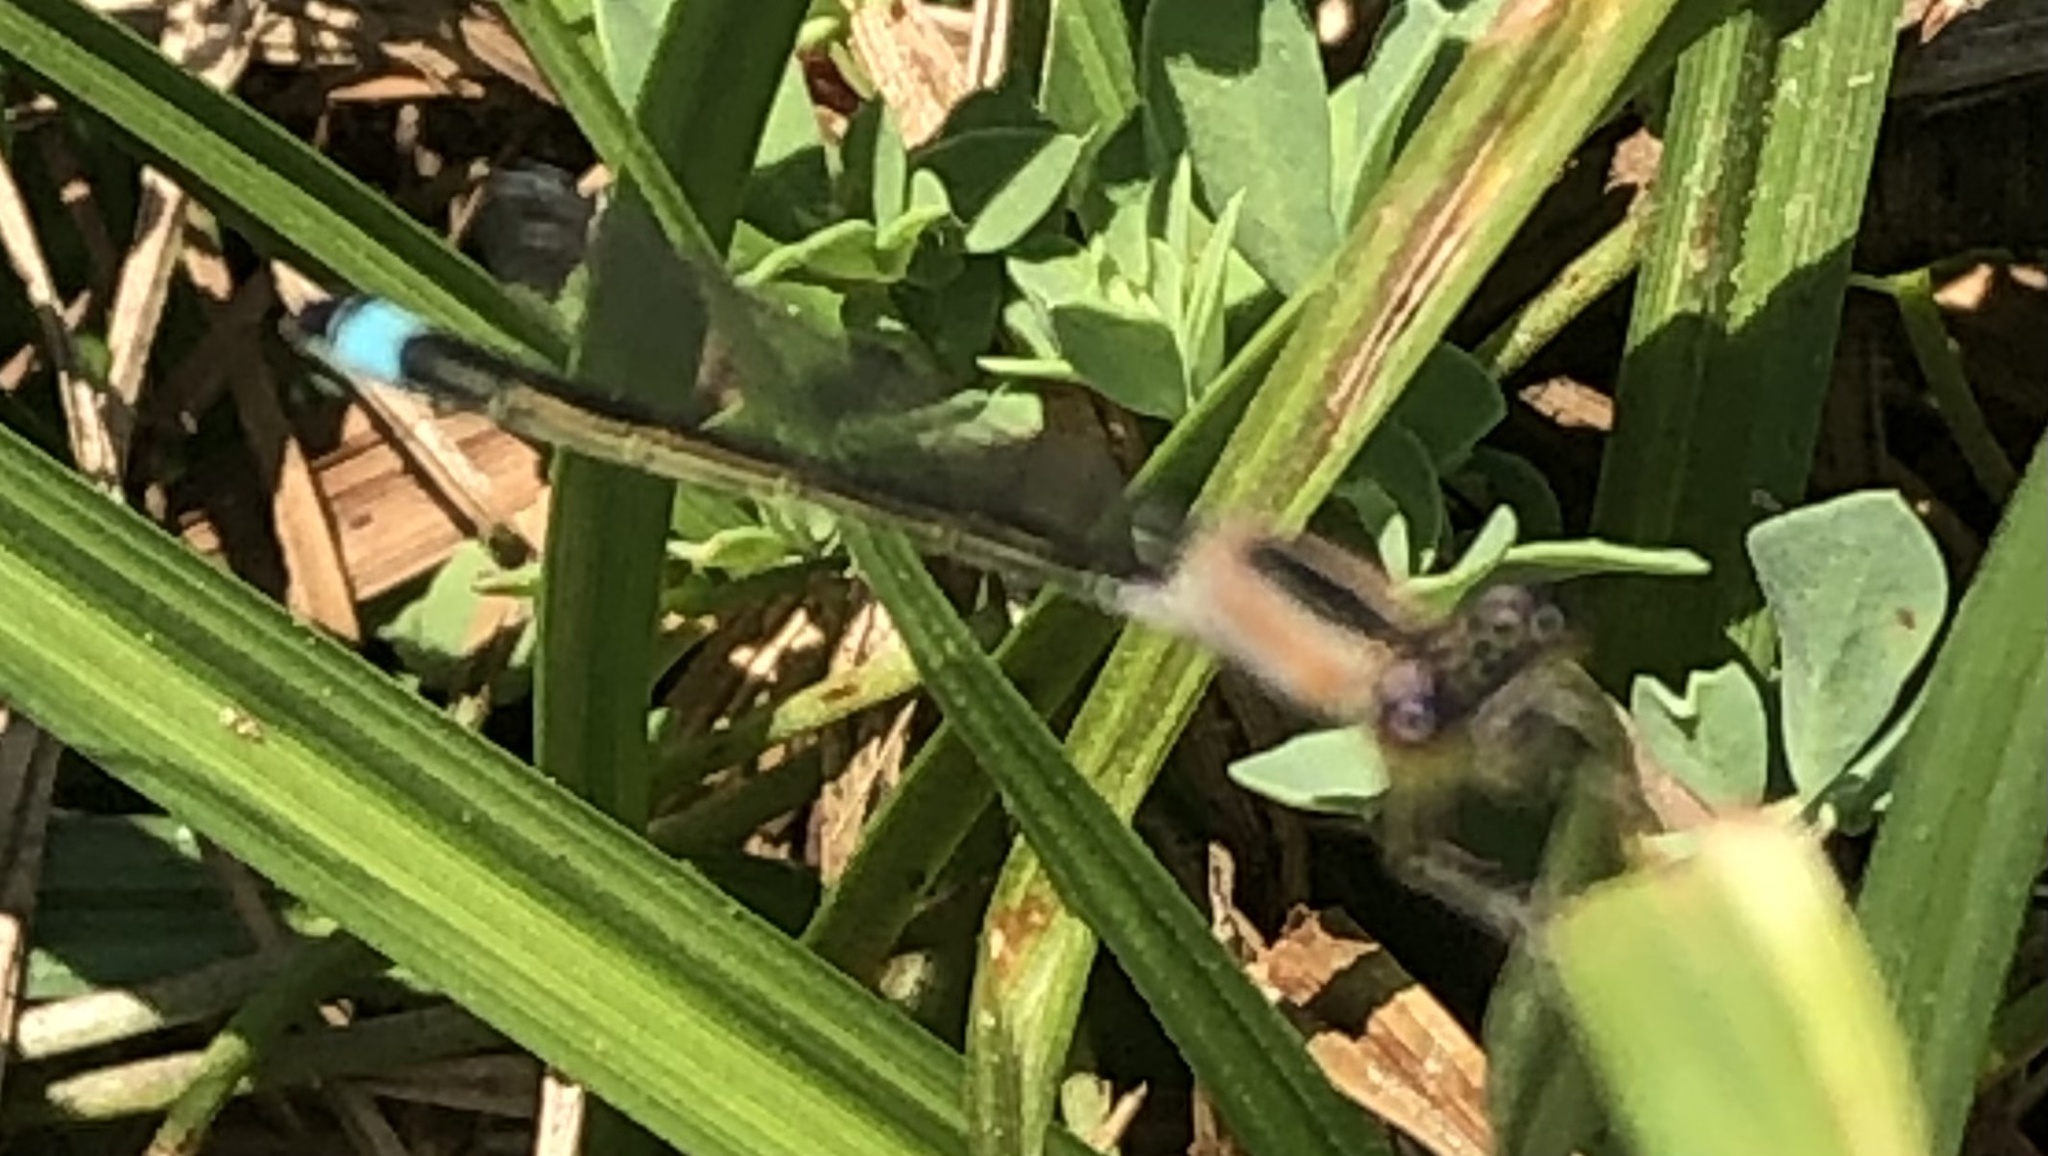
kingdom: Animalia
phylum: Arthropoda
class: Insecta
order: Odonata
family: Coenagrionidae
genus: Ischnura
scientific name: Ischnura genei
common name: Island bluetail
